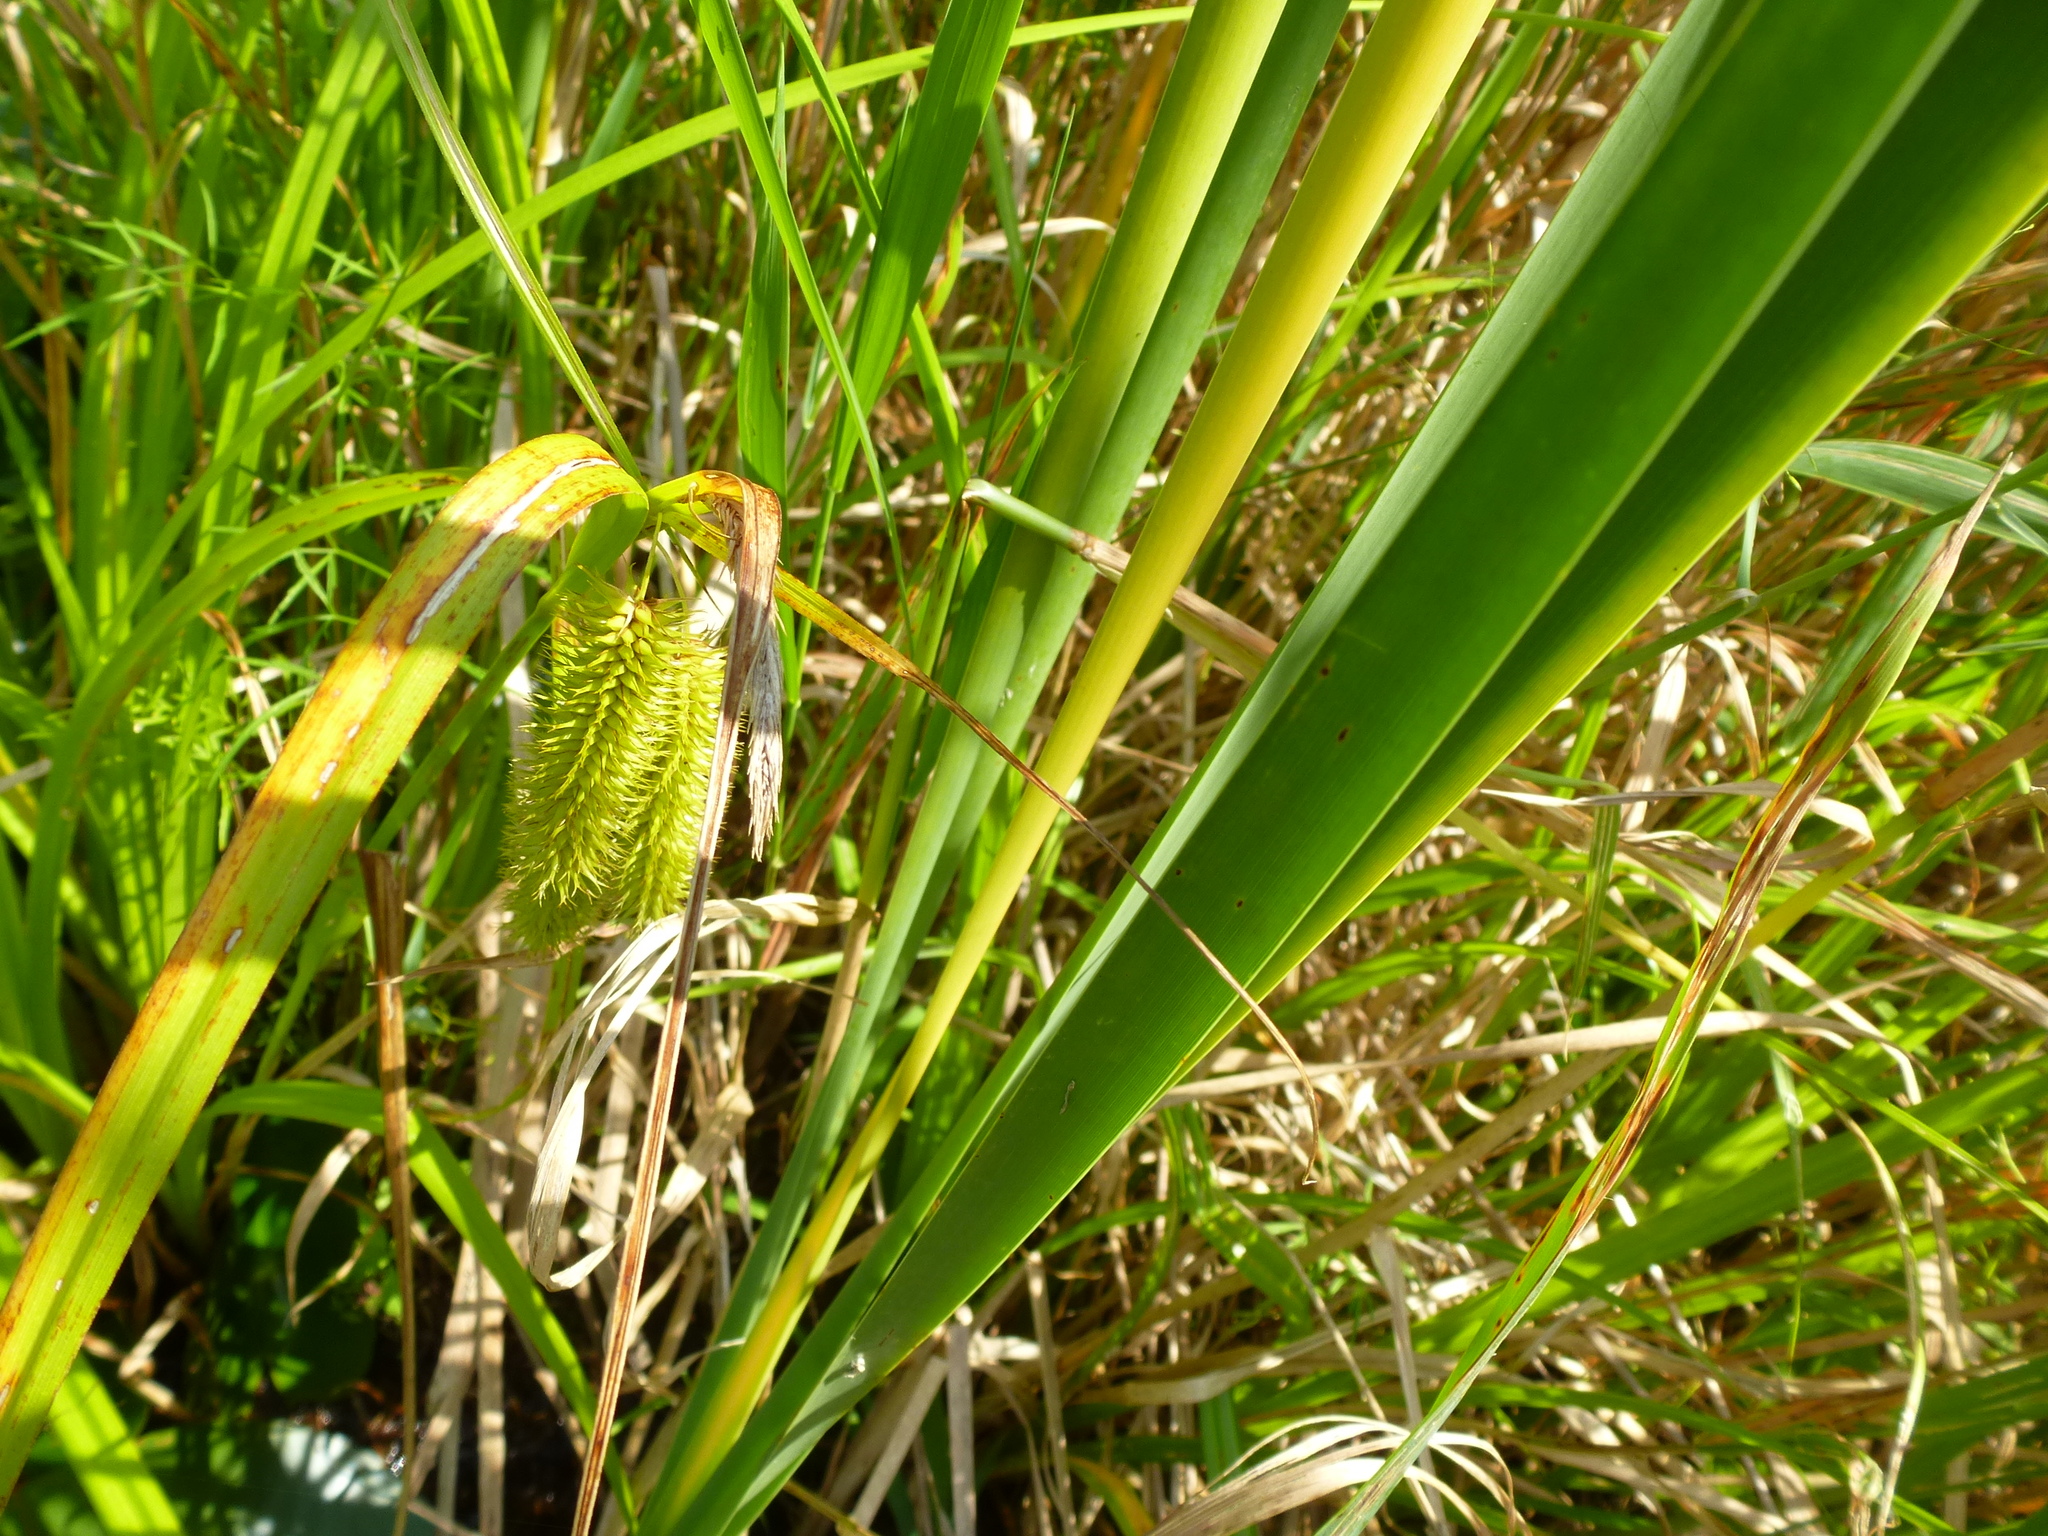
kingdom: Plantae
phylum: Tracheophyta
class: Liliopsida
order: Poales
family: Cyperaceae
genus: Carex
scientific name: Carex comosa
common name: Bristly sedge
